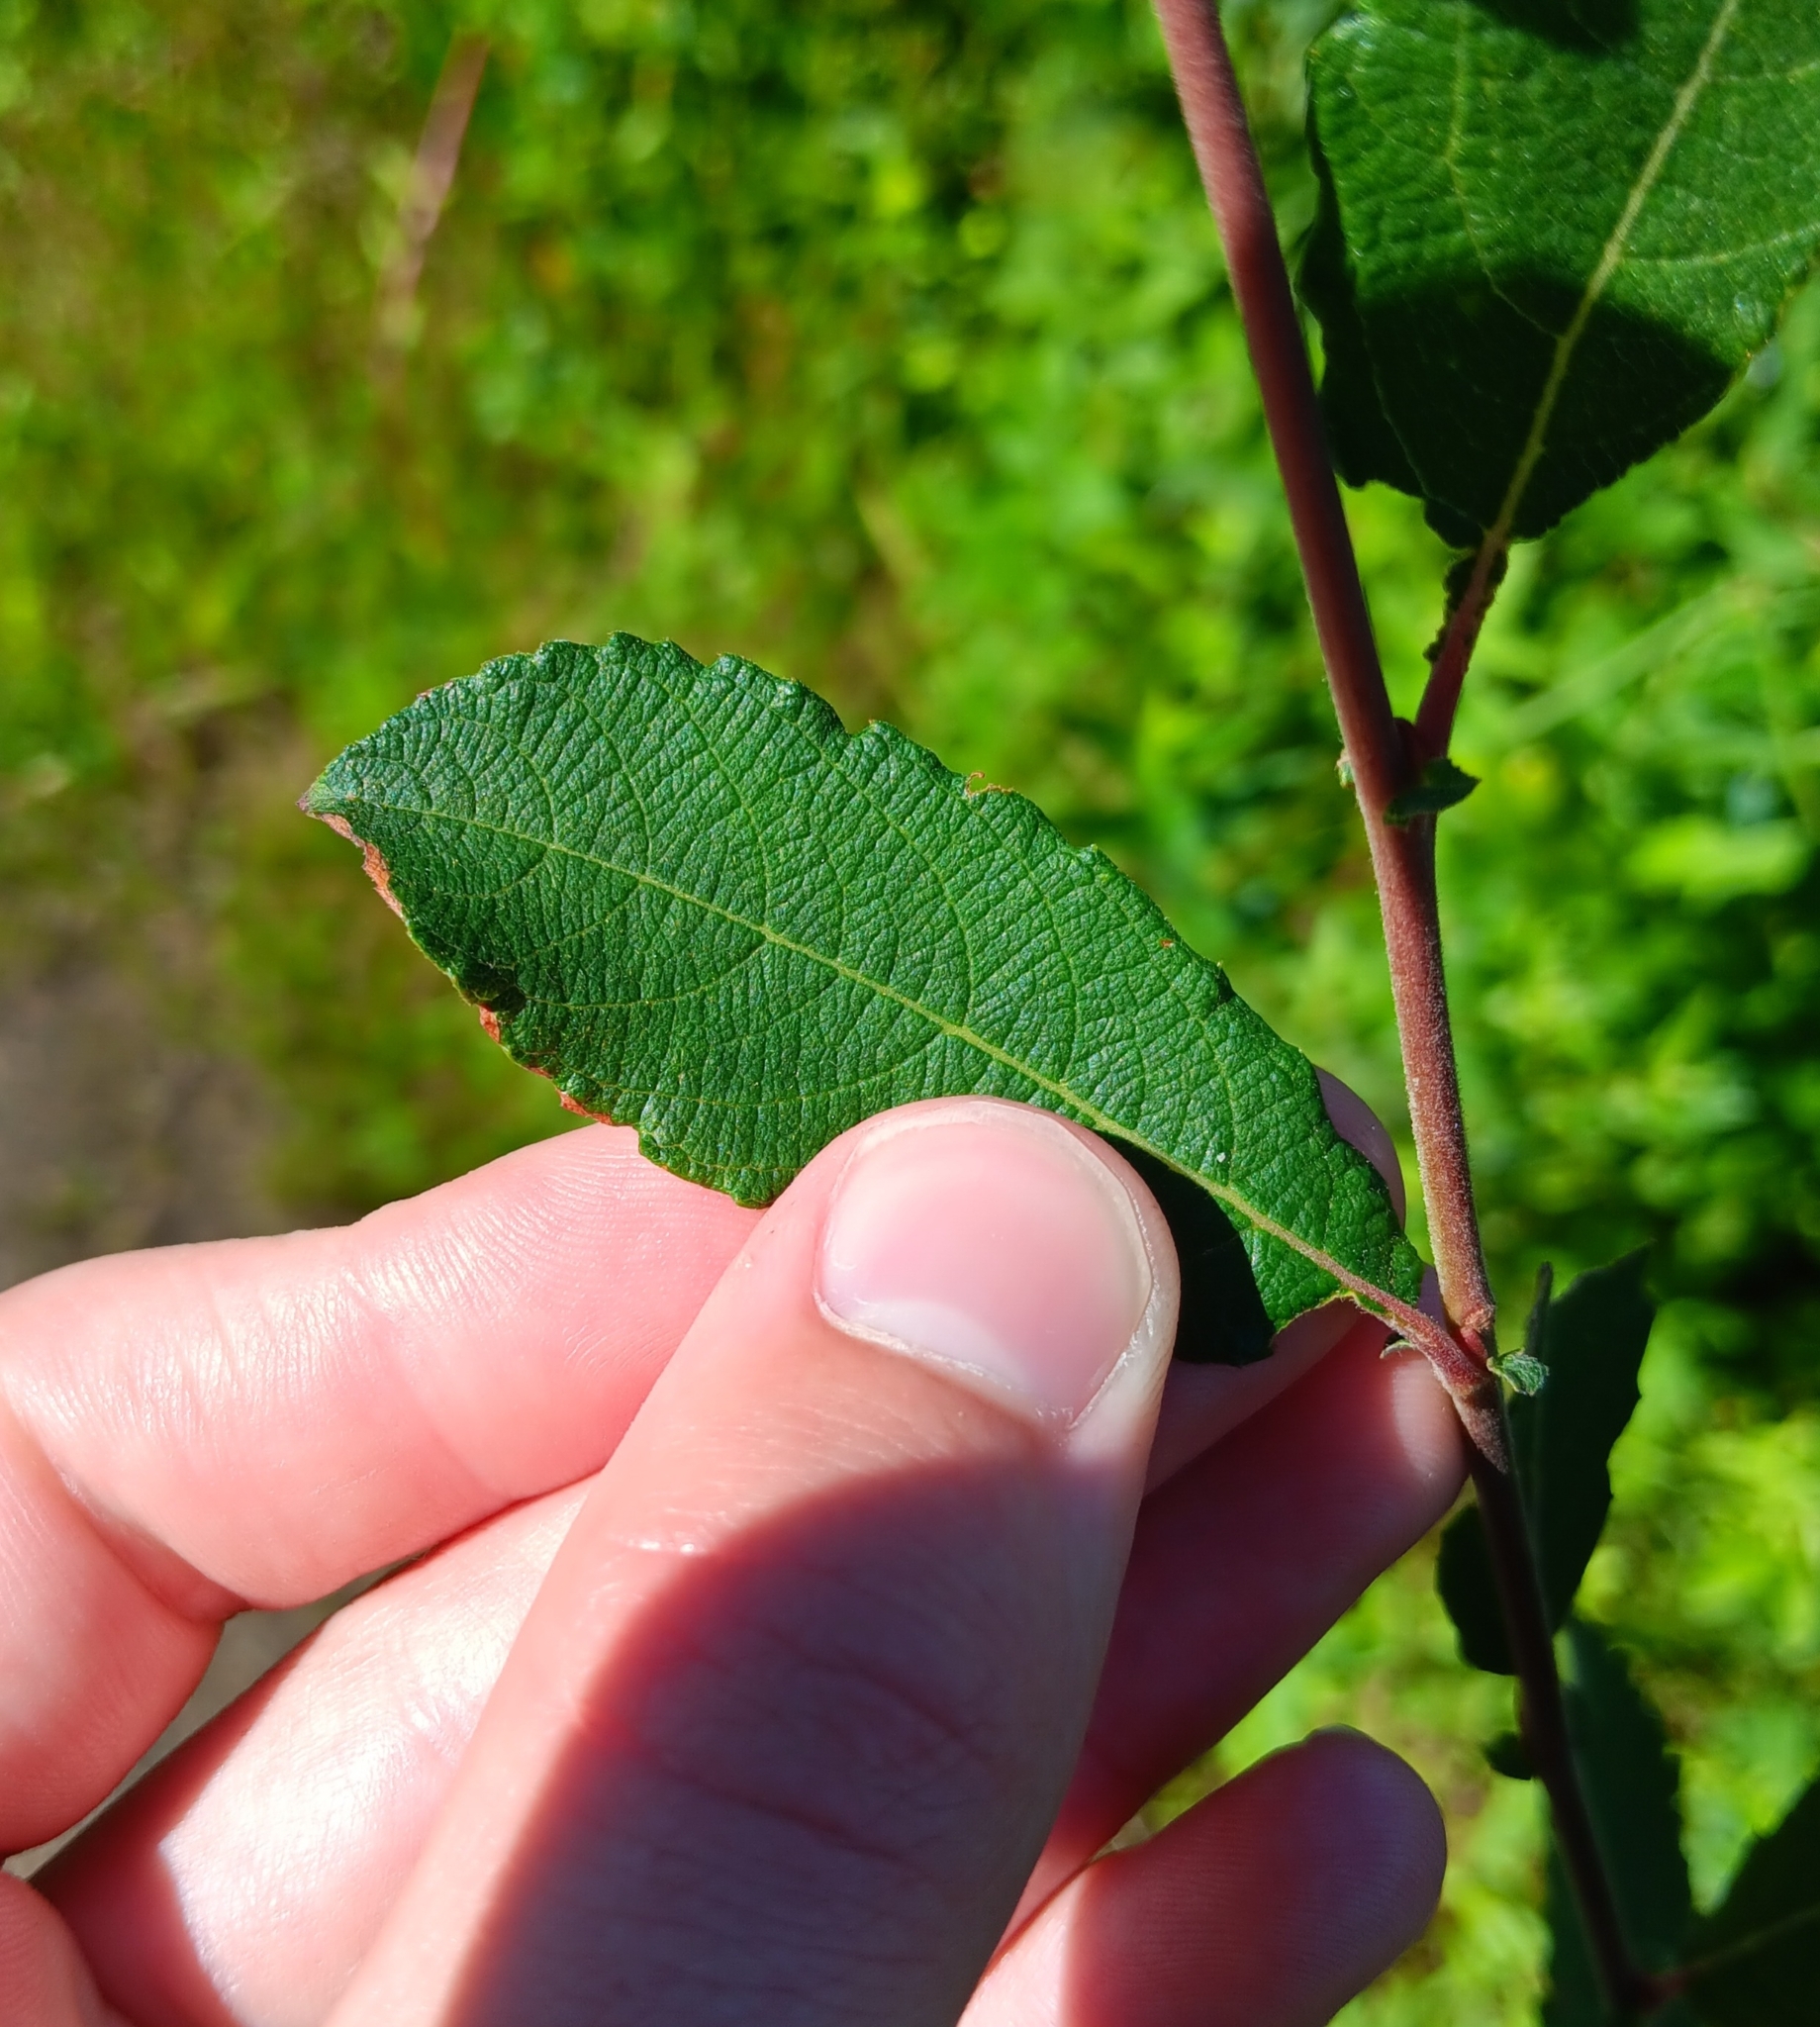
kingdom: Plantae
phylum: Tracheophyta
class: Magnoliopsida
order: Malpighiales
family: Salicaceae
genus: Salix
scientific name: Salix atrocinerea
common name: Rusty willow
